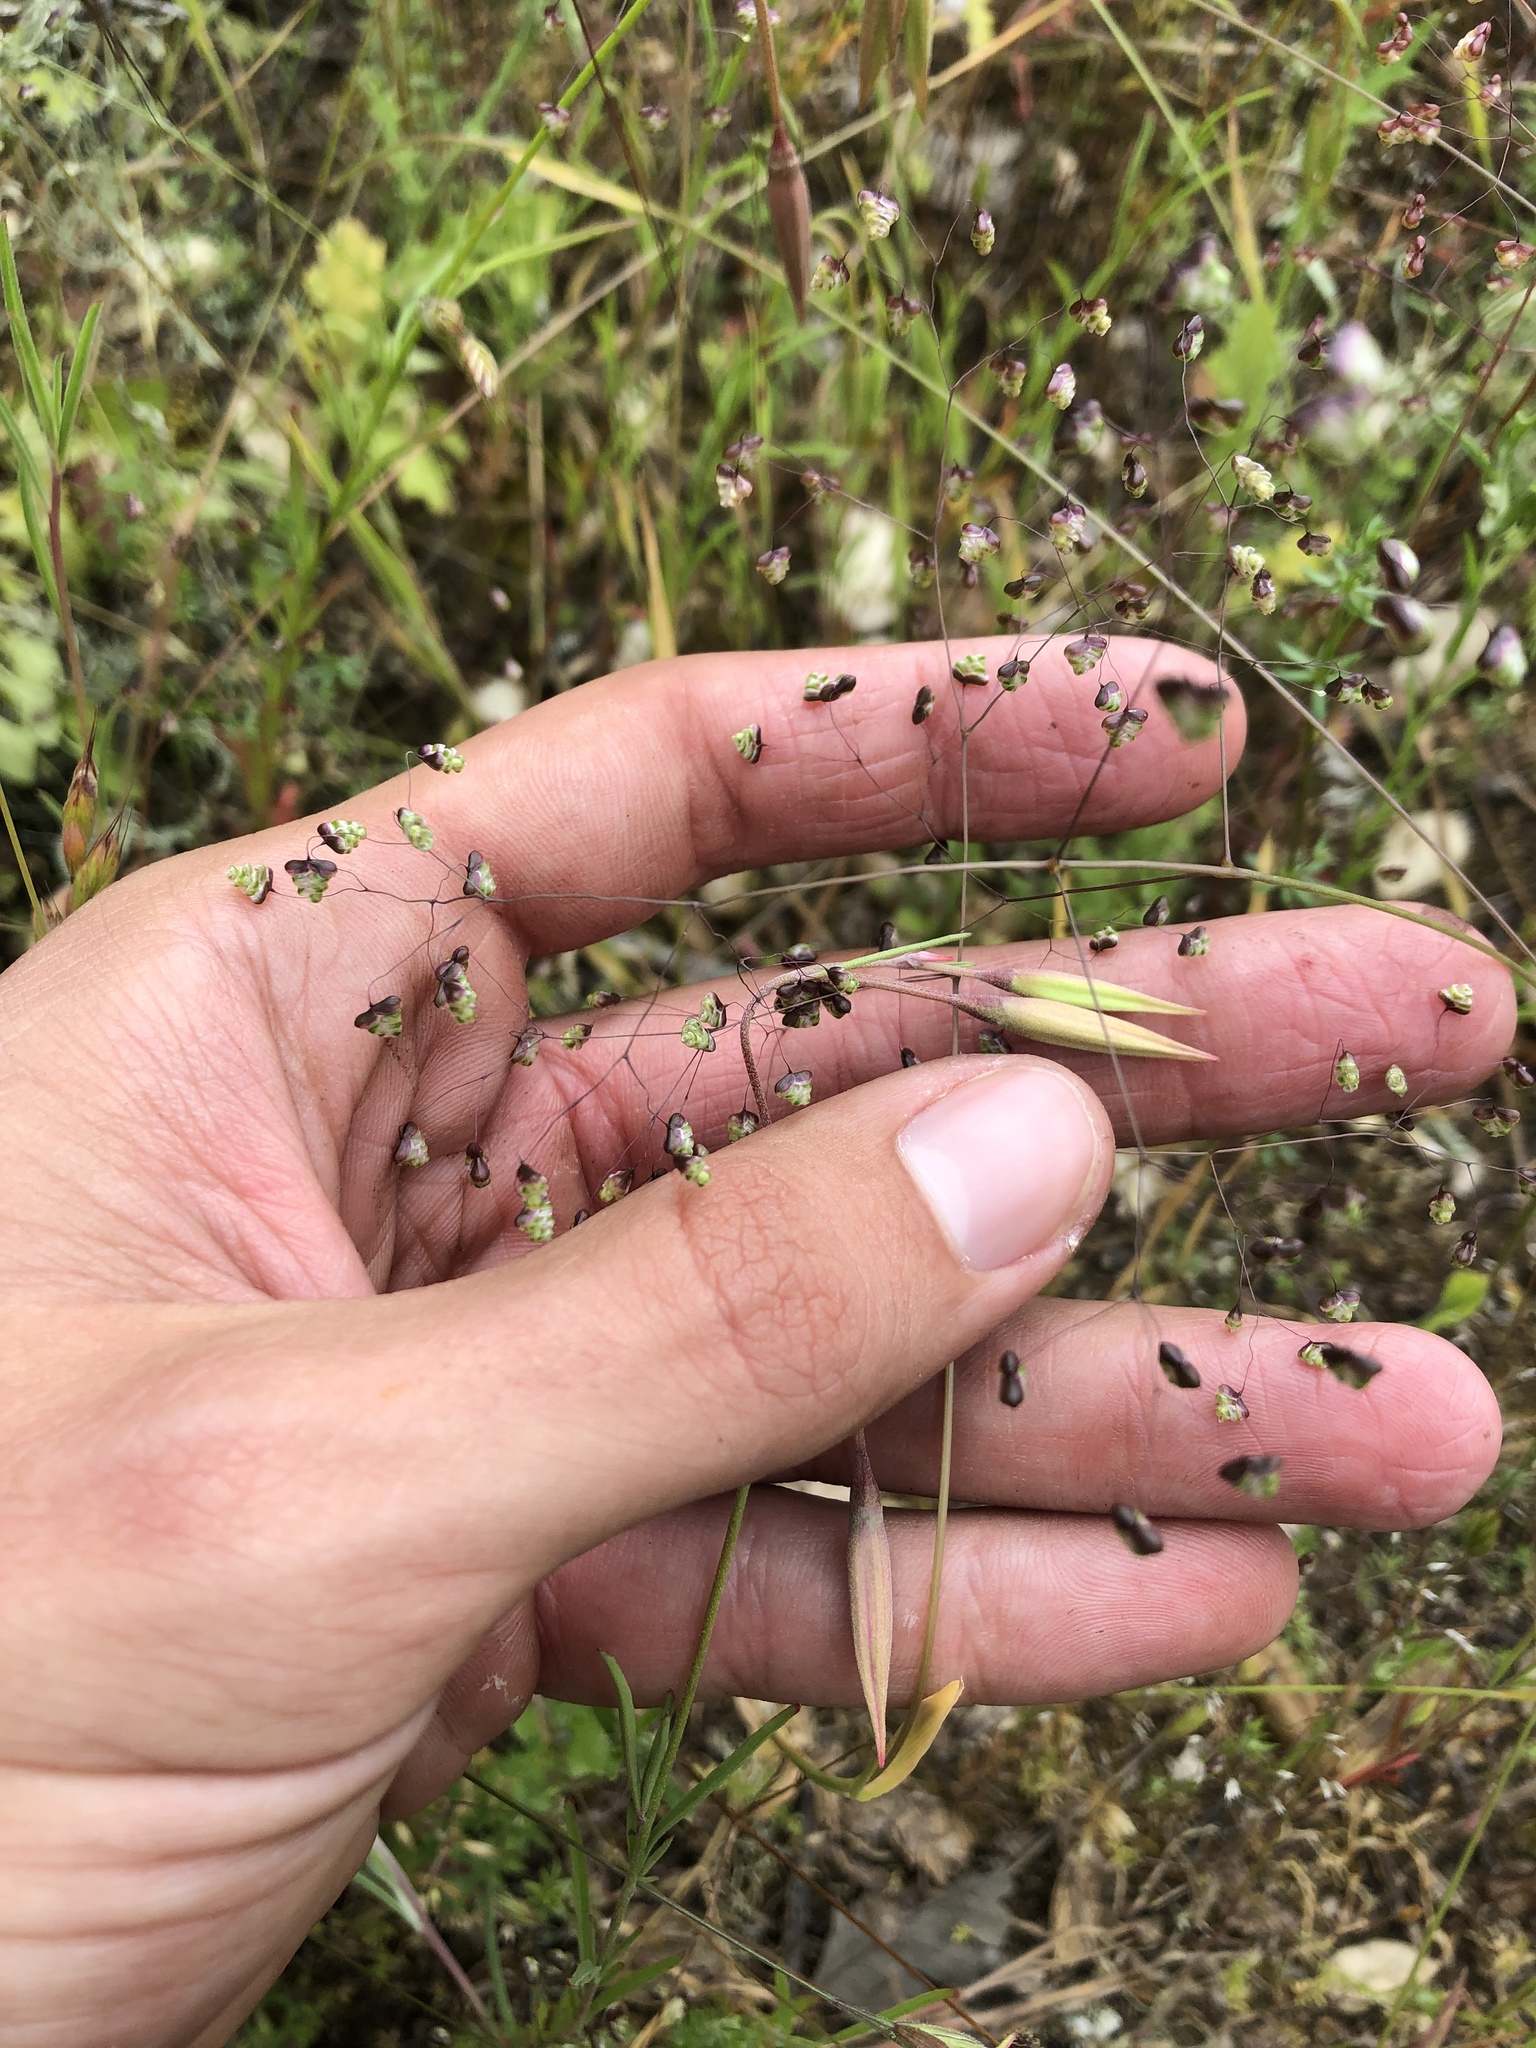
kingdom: Plantae
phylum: Tracheophyta
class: Liliopsida
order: Poales
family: Poaceae
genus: Briza
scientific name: Briza minor
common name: Lesser quaking-grass
